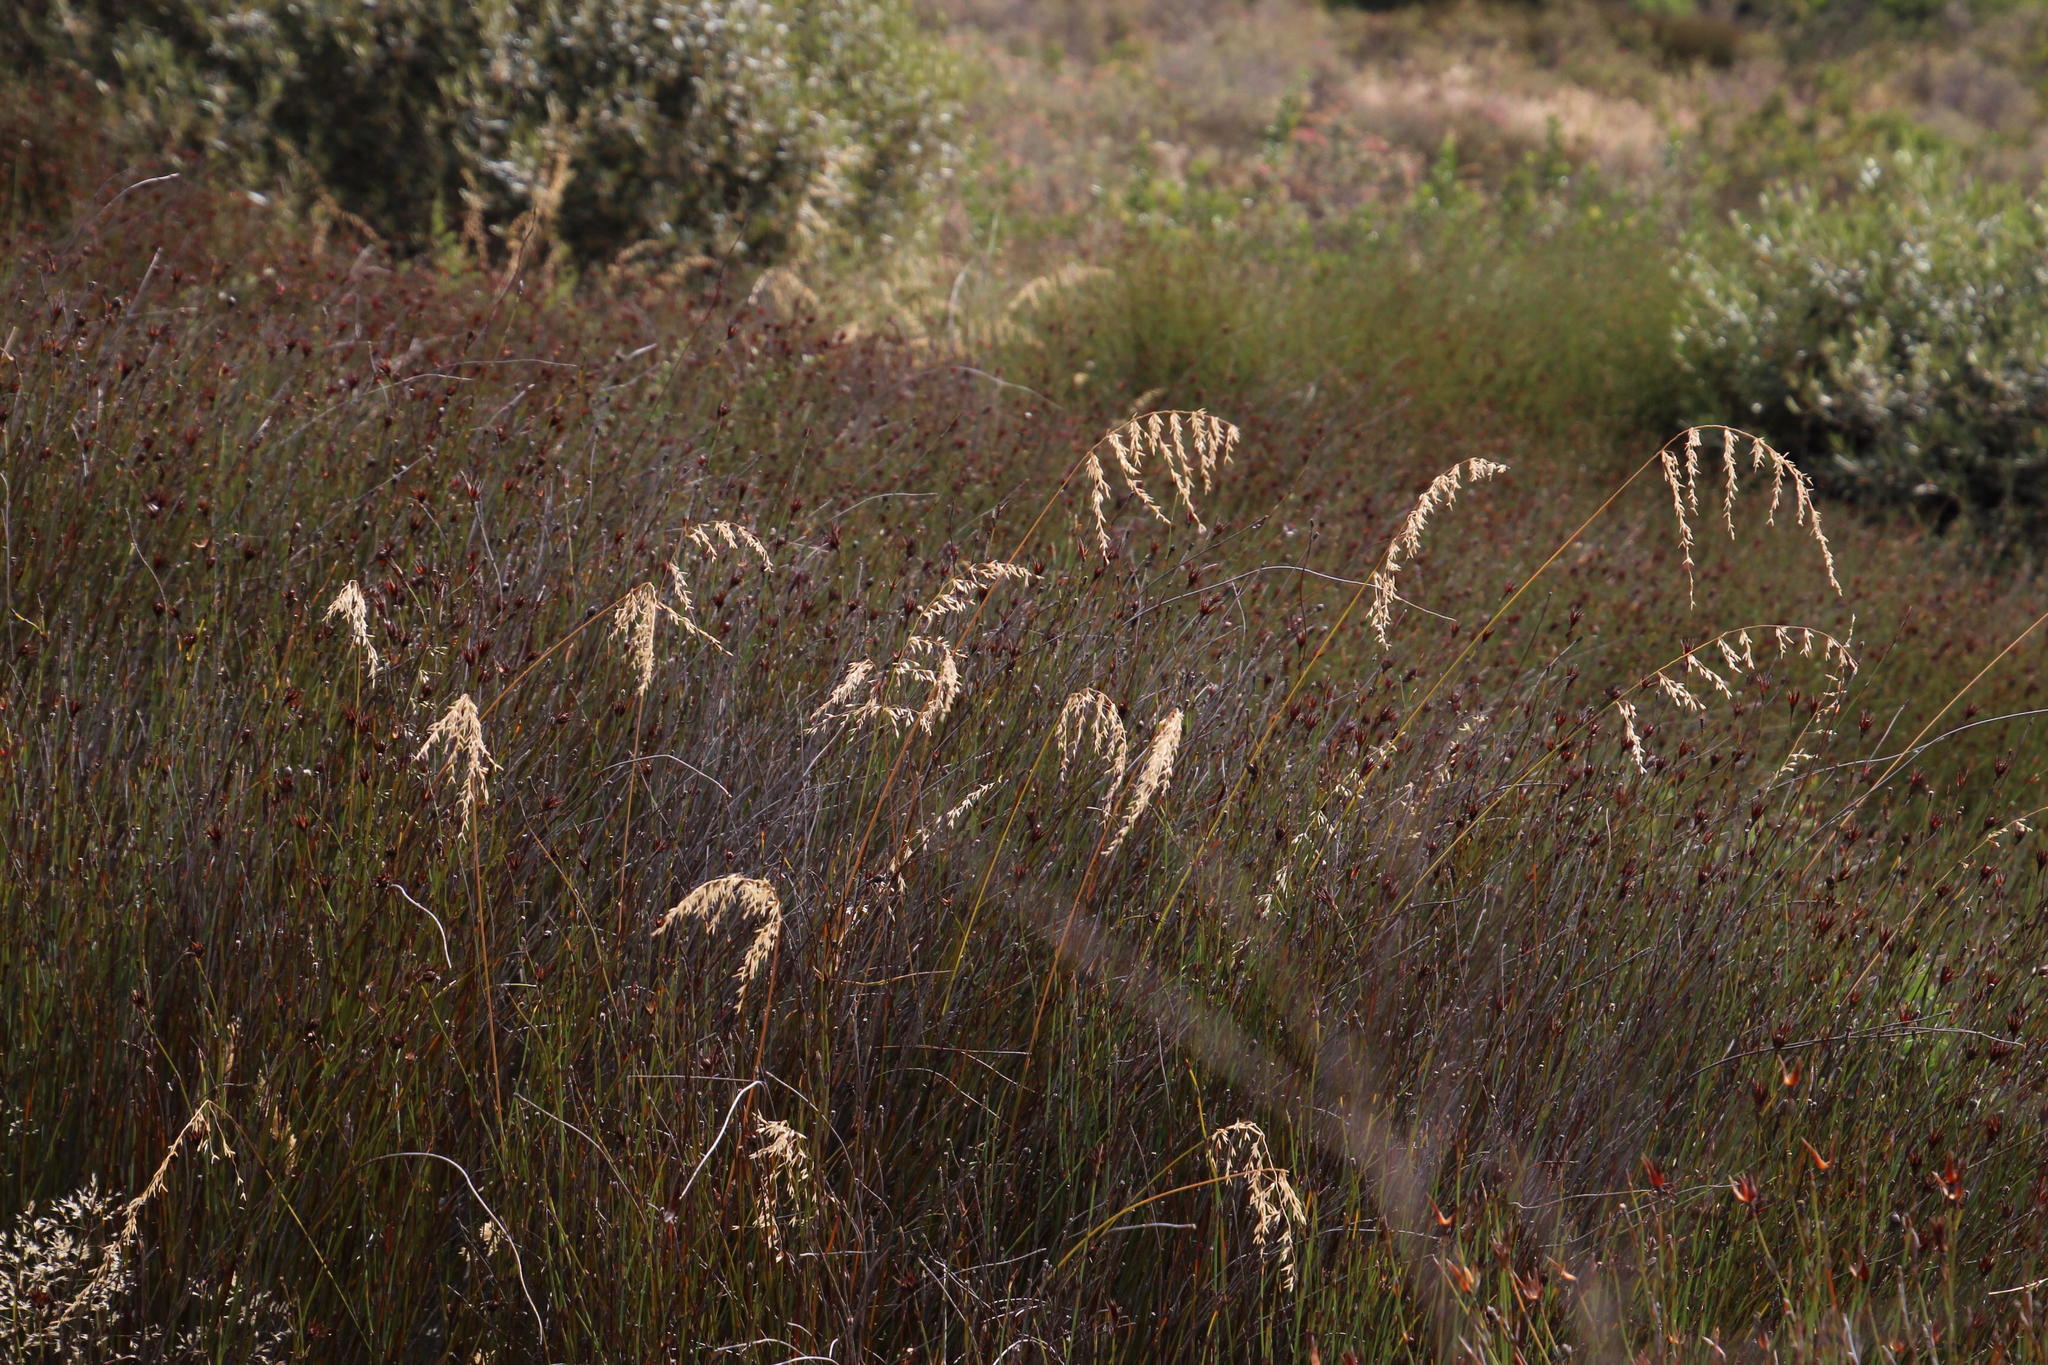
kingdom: Plantae
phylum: Tracheophyta
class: Liliopsida
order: Poales
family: Poaceae
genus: Ehrharta
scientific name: Ehrharta calycina
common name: Perennial veldtgrass
